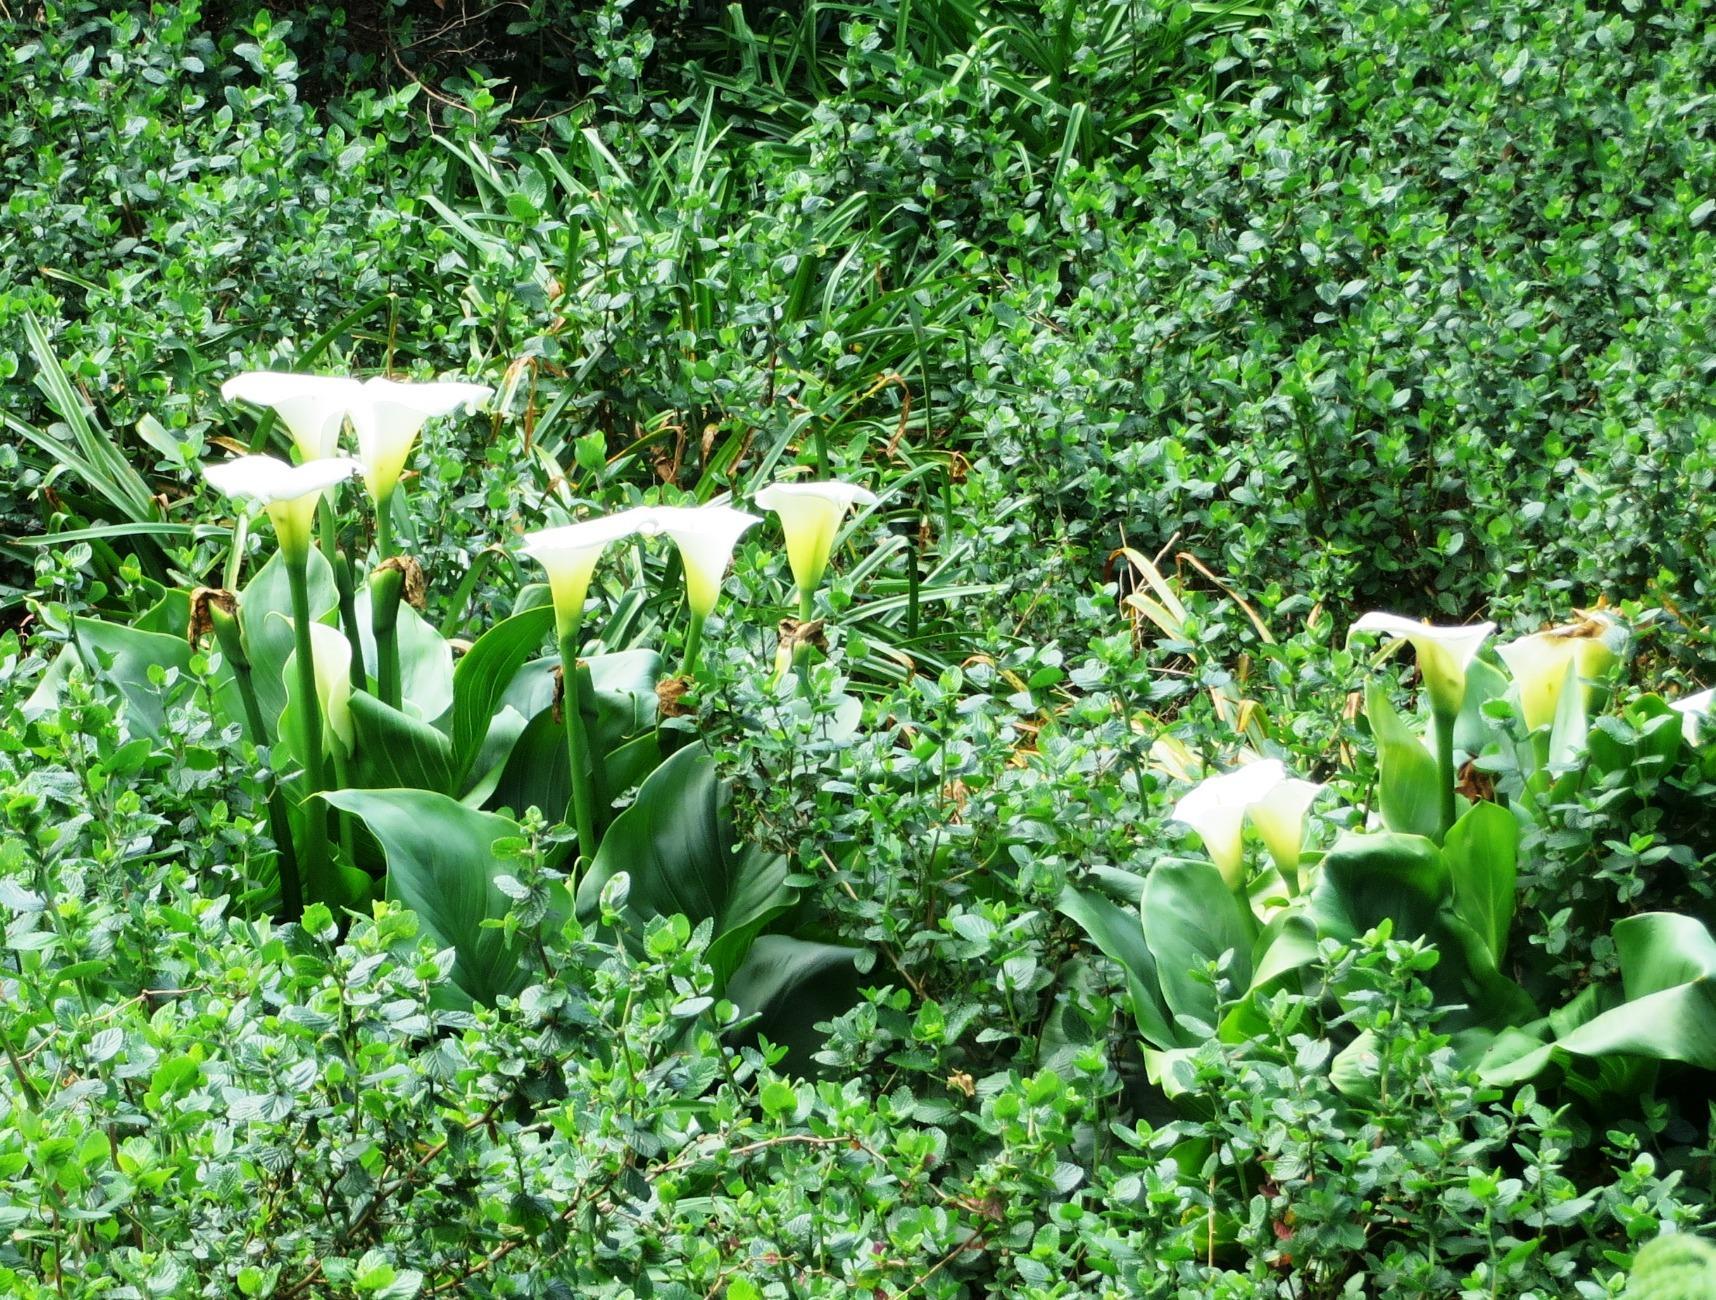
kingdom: Plantae
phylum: Tracheophyta
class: Liliopsida
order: Alismatales
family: Araceae
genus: Zantedeschia
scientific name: Zantedeschia aethiopica
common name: Altar-lily
